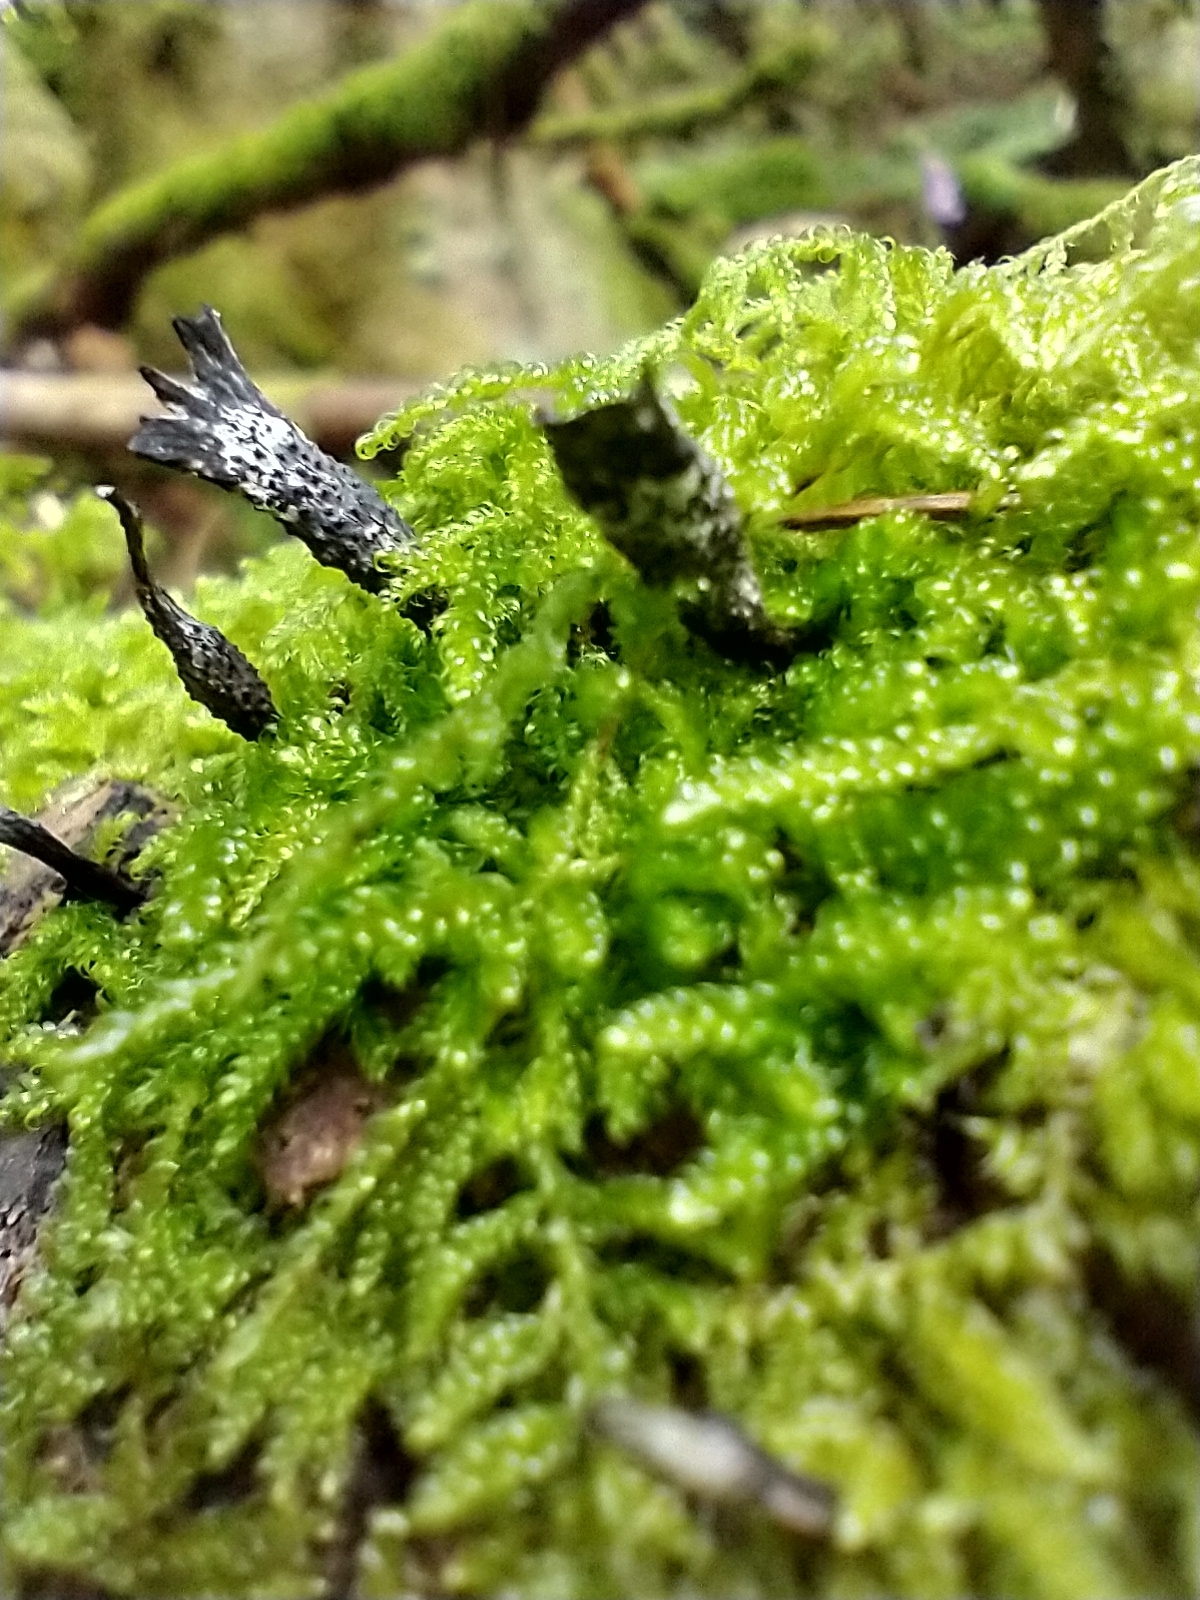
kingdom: Fungi
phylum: Ascomycota
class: Sordariomycetes
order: Xylariales
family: Xylariaceae
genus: Xylaria
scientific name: Xylaria hypoxylon
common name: Candle-snuff fungus
